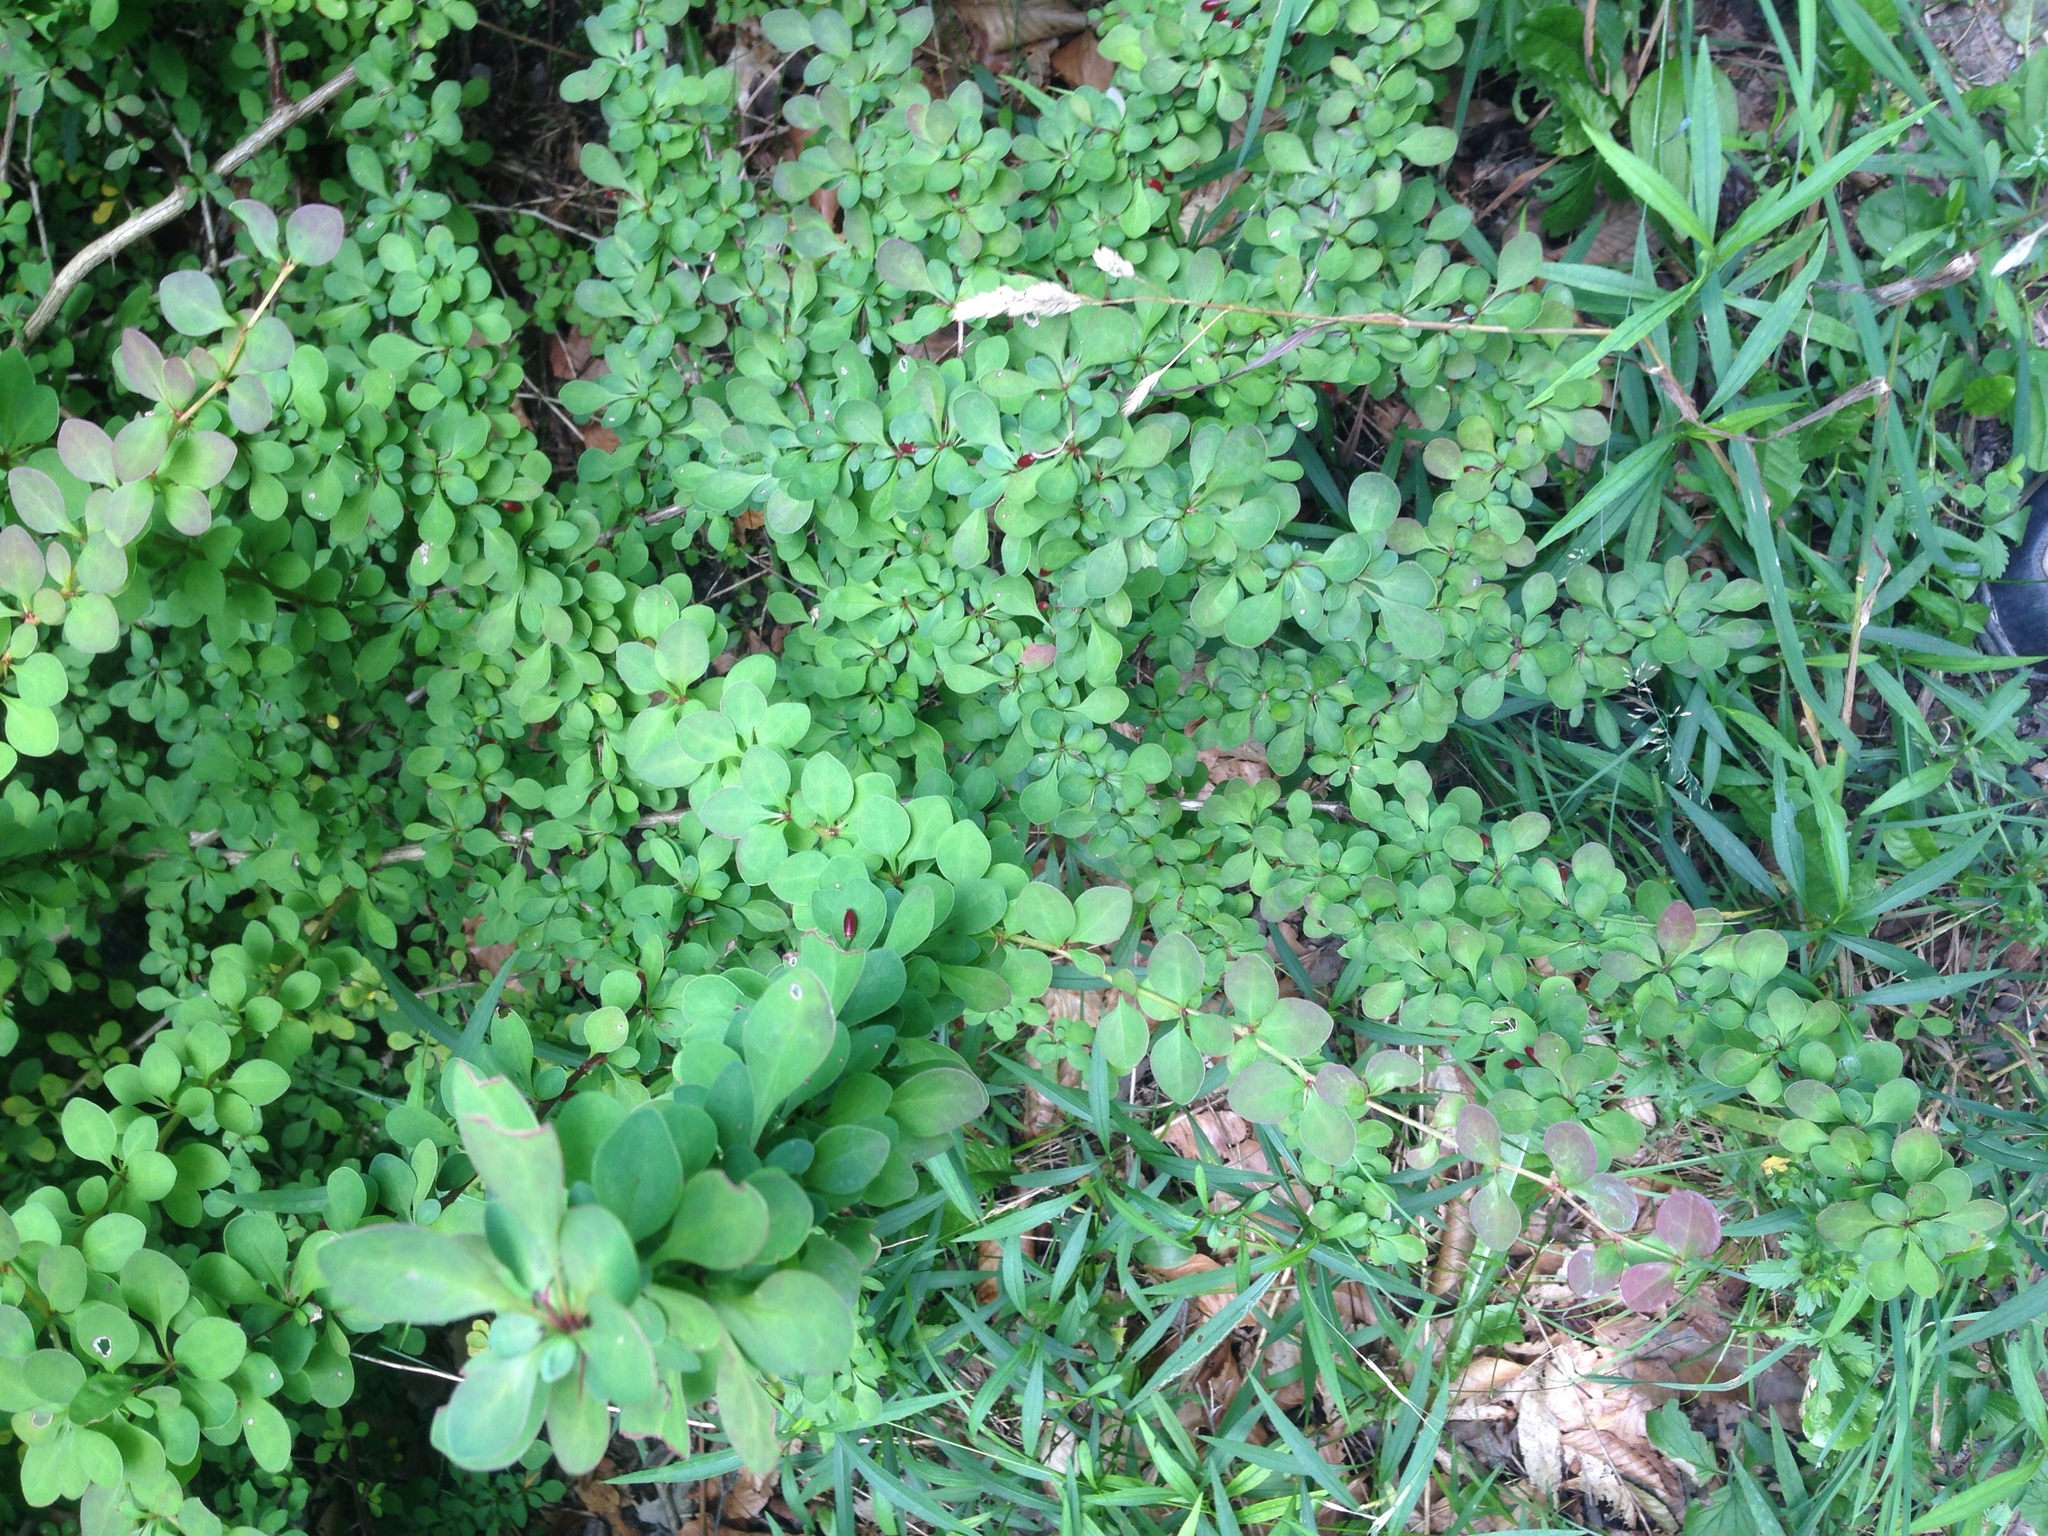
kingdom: Plantae
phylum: Tracheophyta
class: Magnoliopsida
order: Ranunculales
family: Berberidaceae
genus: Berberis
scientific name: Berberis thunbergii
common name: Japanese barberry
